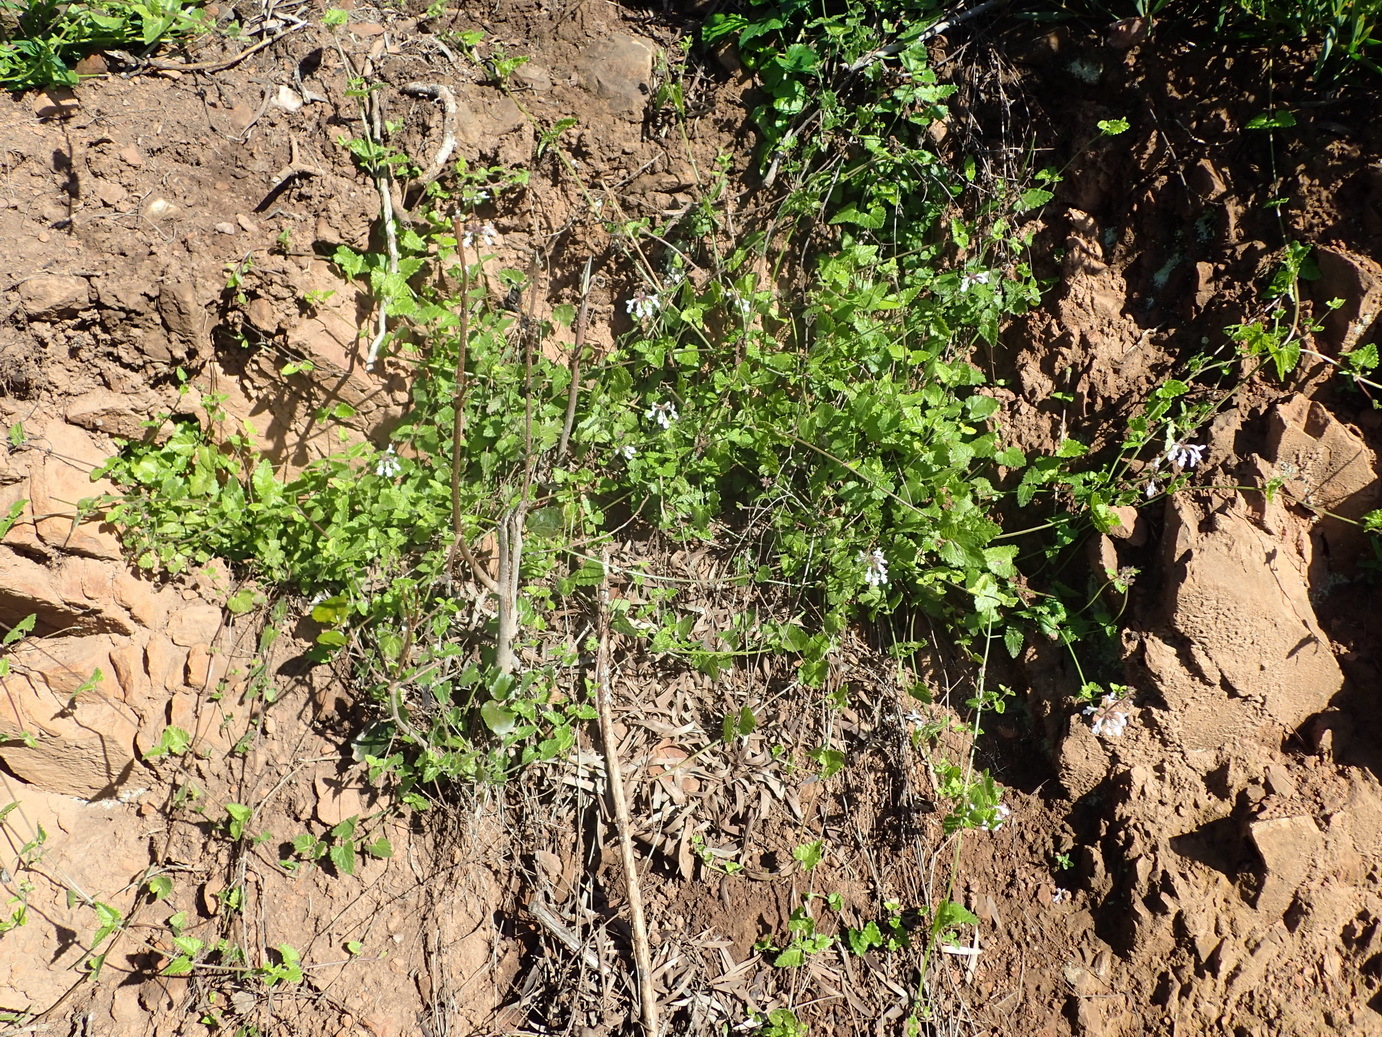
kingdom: Plantae
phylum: Tracheophyta
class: Magnoliopsida
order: Lamiales
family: Lamiaceae
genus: Stachys
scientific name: Stachys aethiopica
